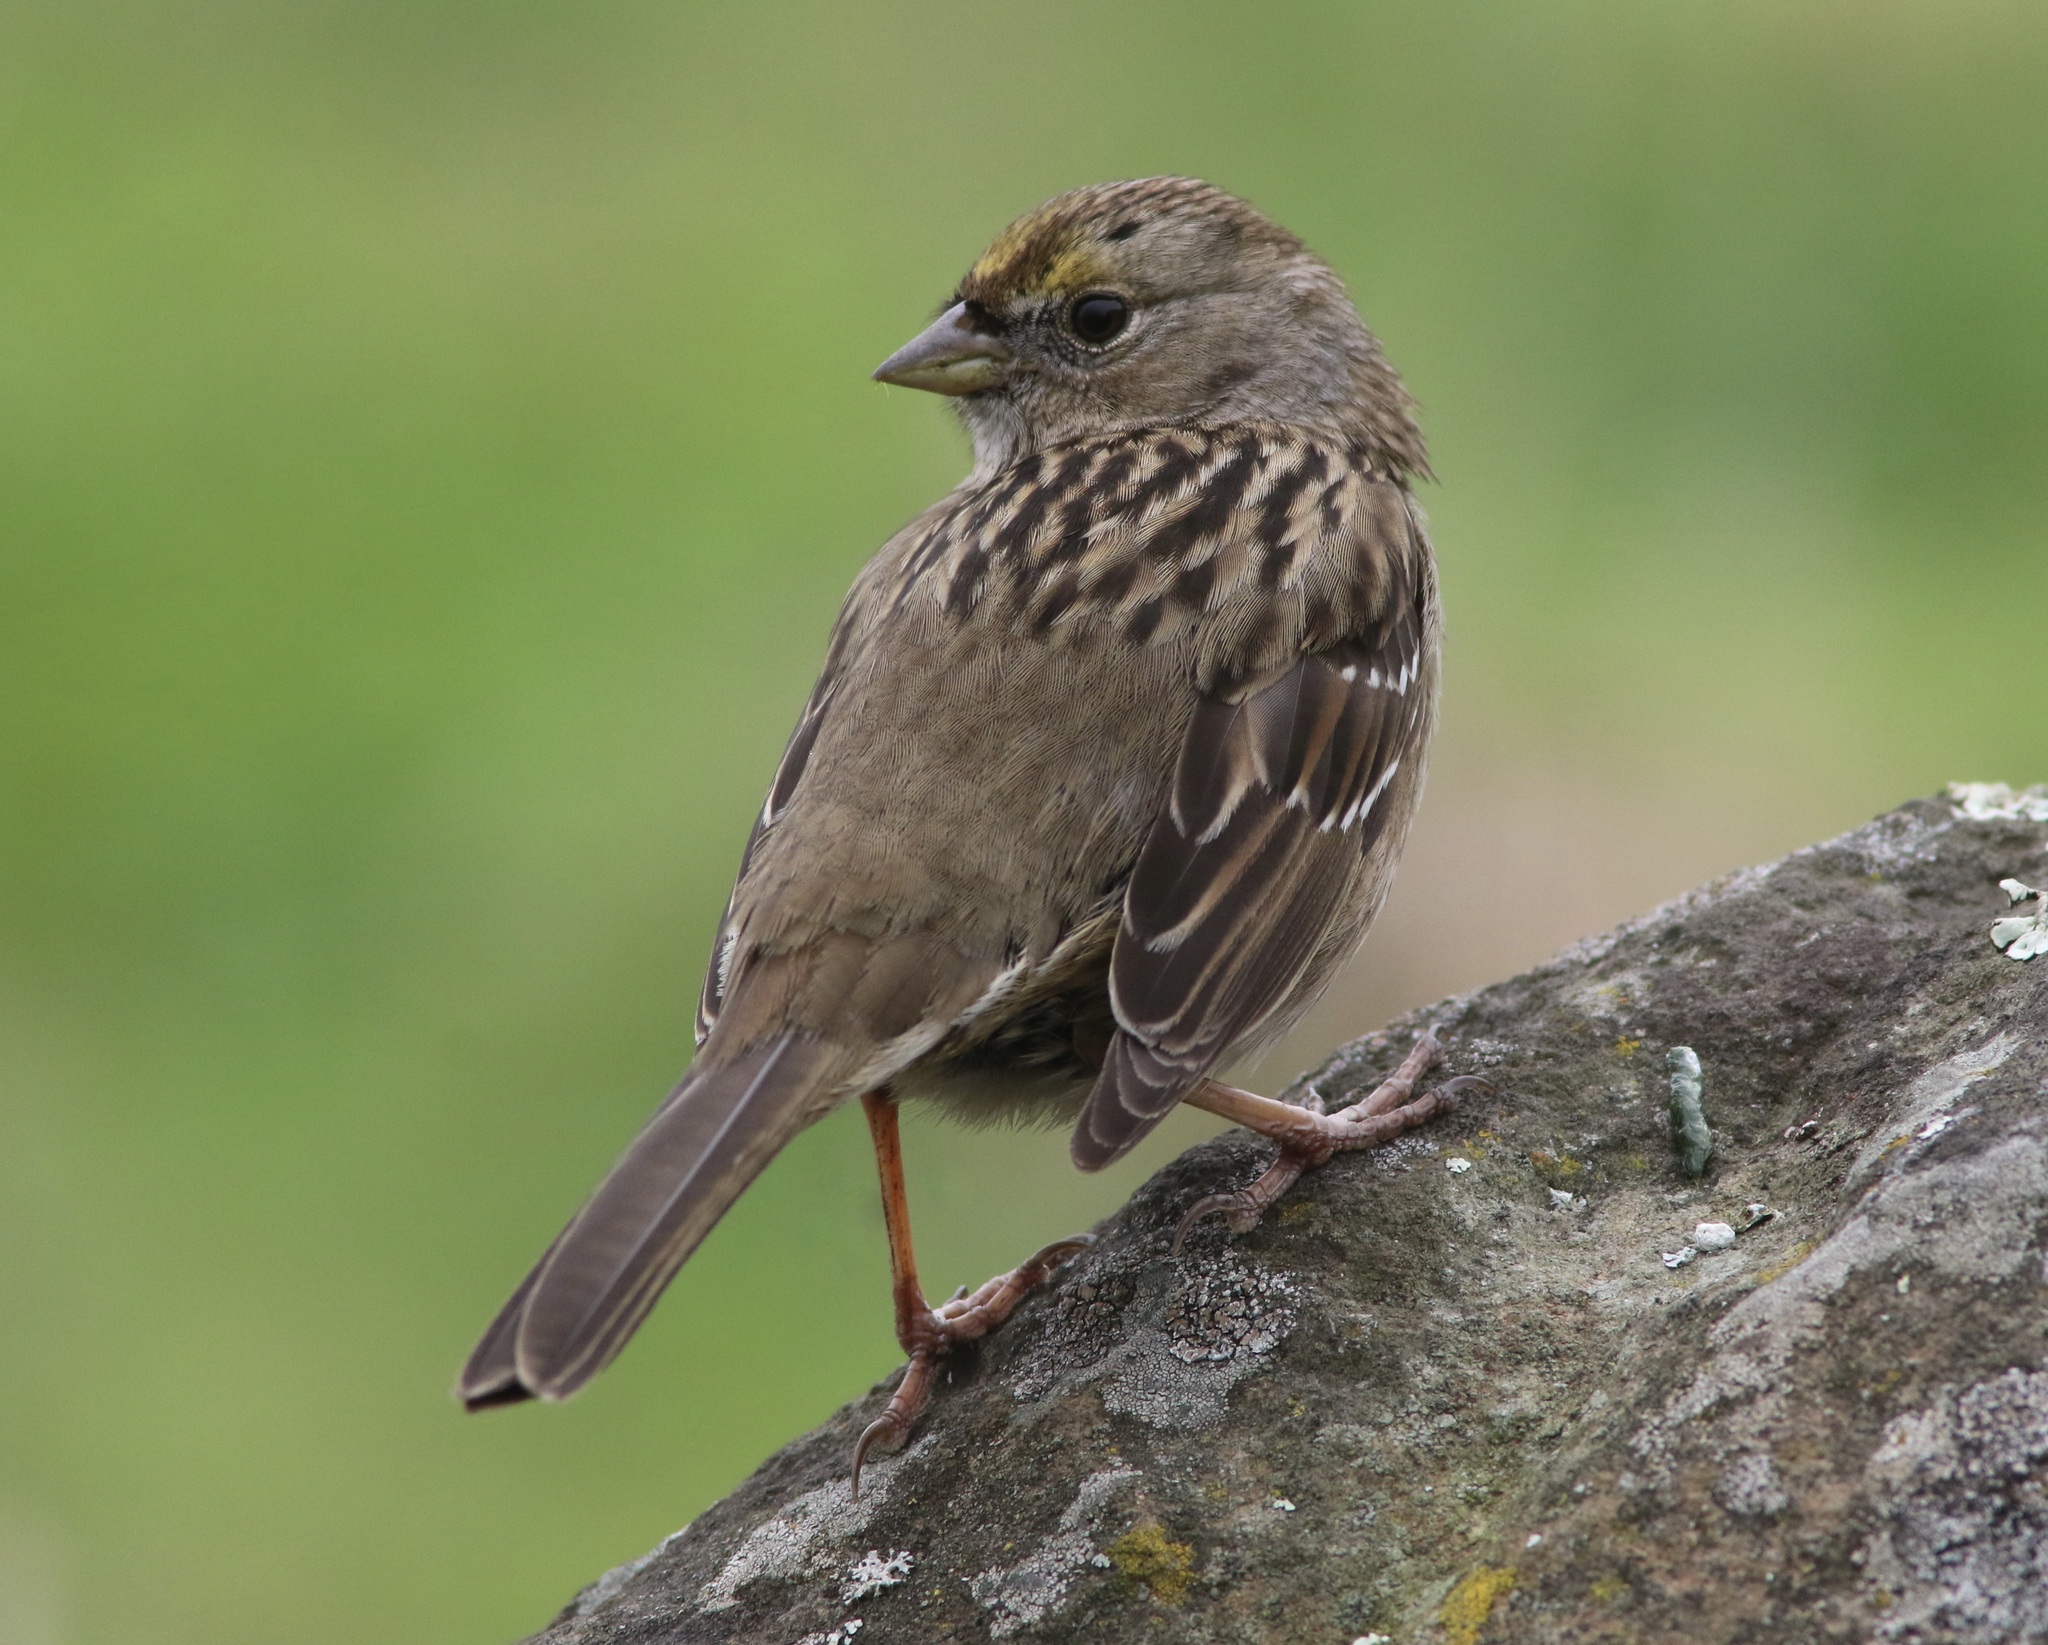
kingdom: Animalia
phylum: Chordata
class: Aves
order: Passeriformes
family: Passerellidae
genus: Zonotrichia
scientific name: Zonotrichia atricapilla
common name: Golden-crowned sparrow
